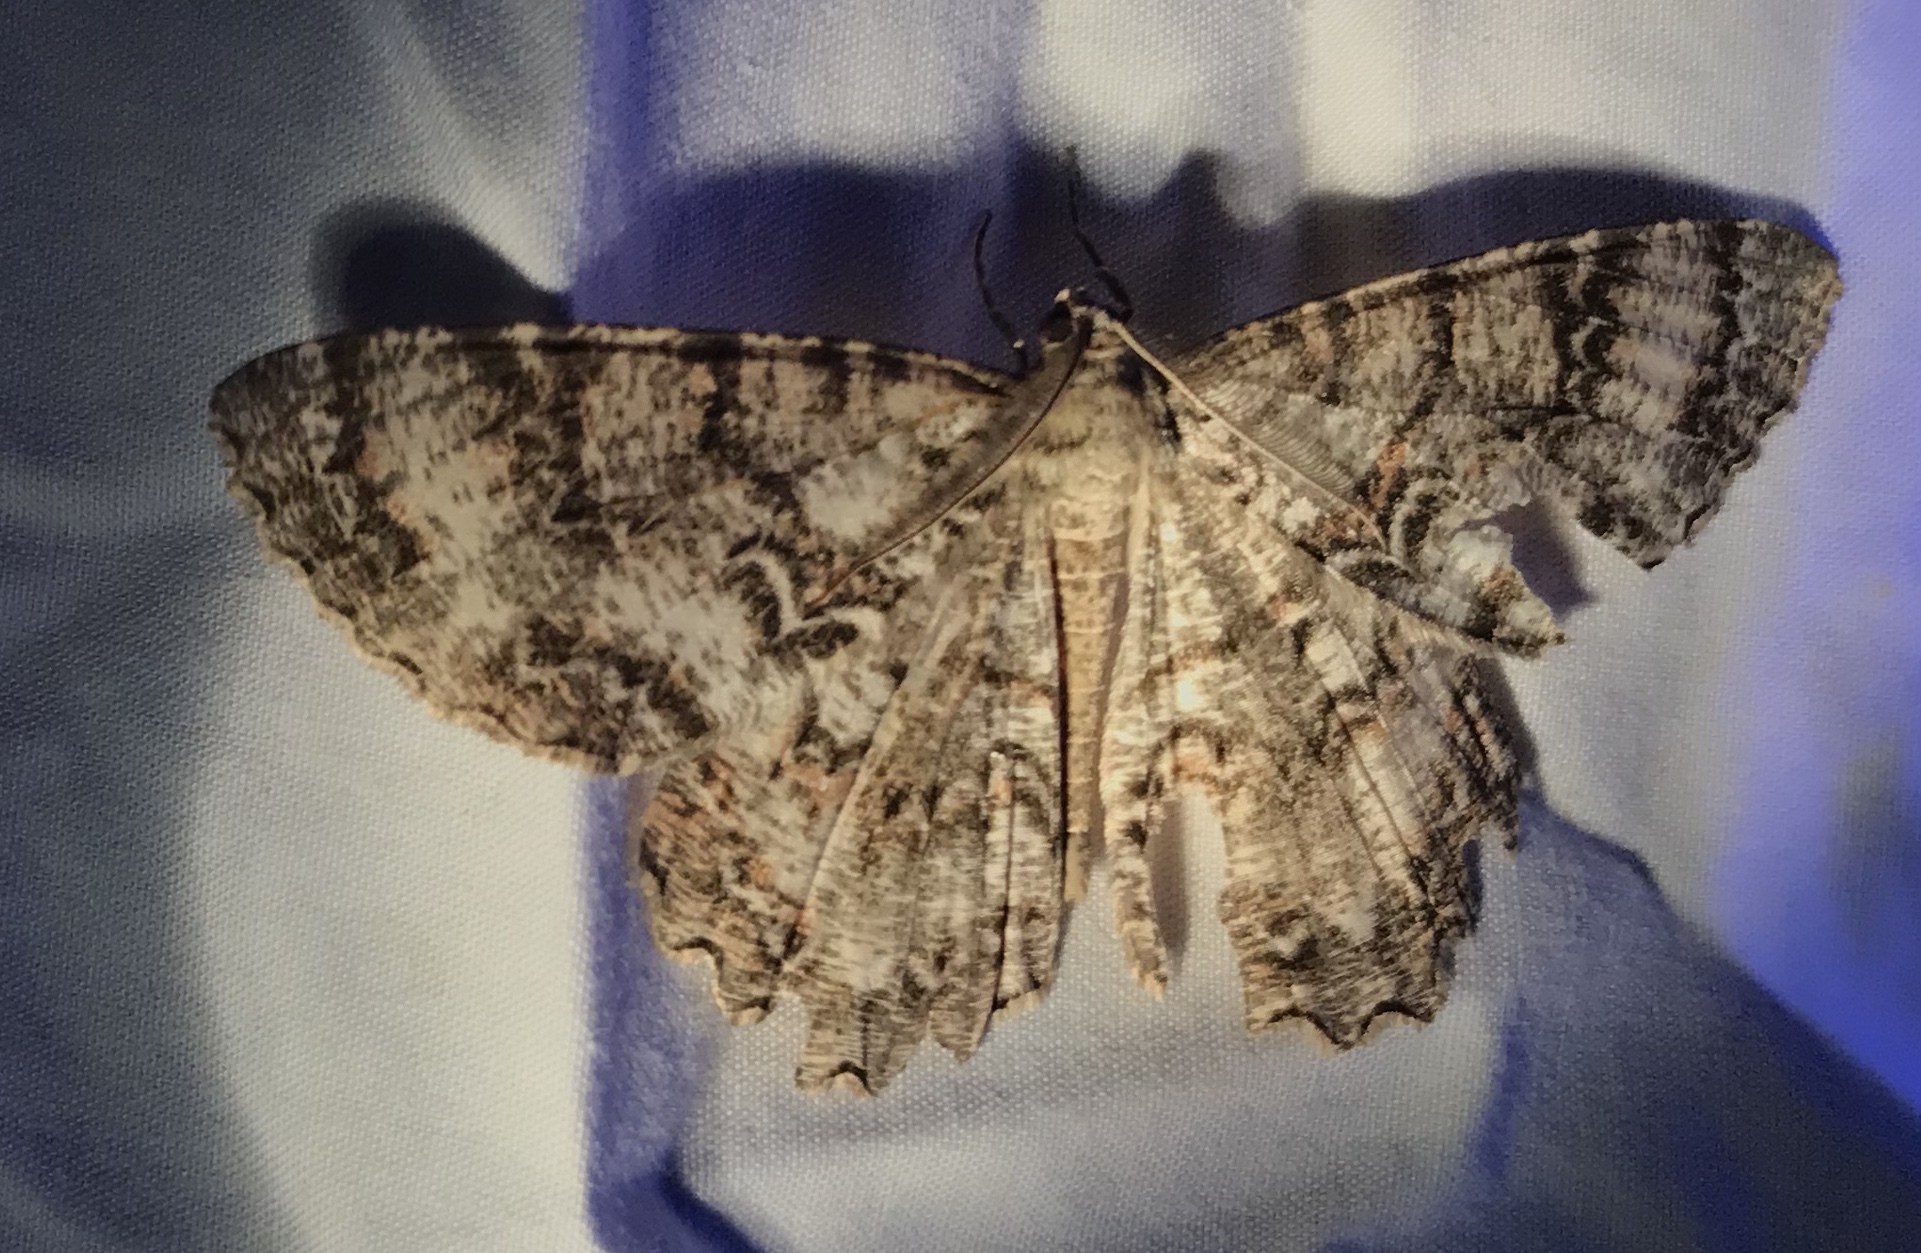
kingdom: Animalia
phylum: Arthropoda
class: Insecta
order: Lepidoptera
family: Geometridae
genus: Epimecis
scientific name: Epimecis hortaria
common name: Tulip-tree beauty
